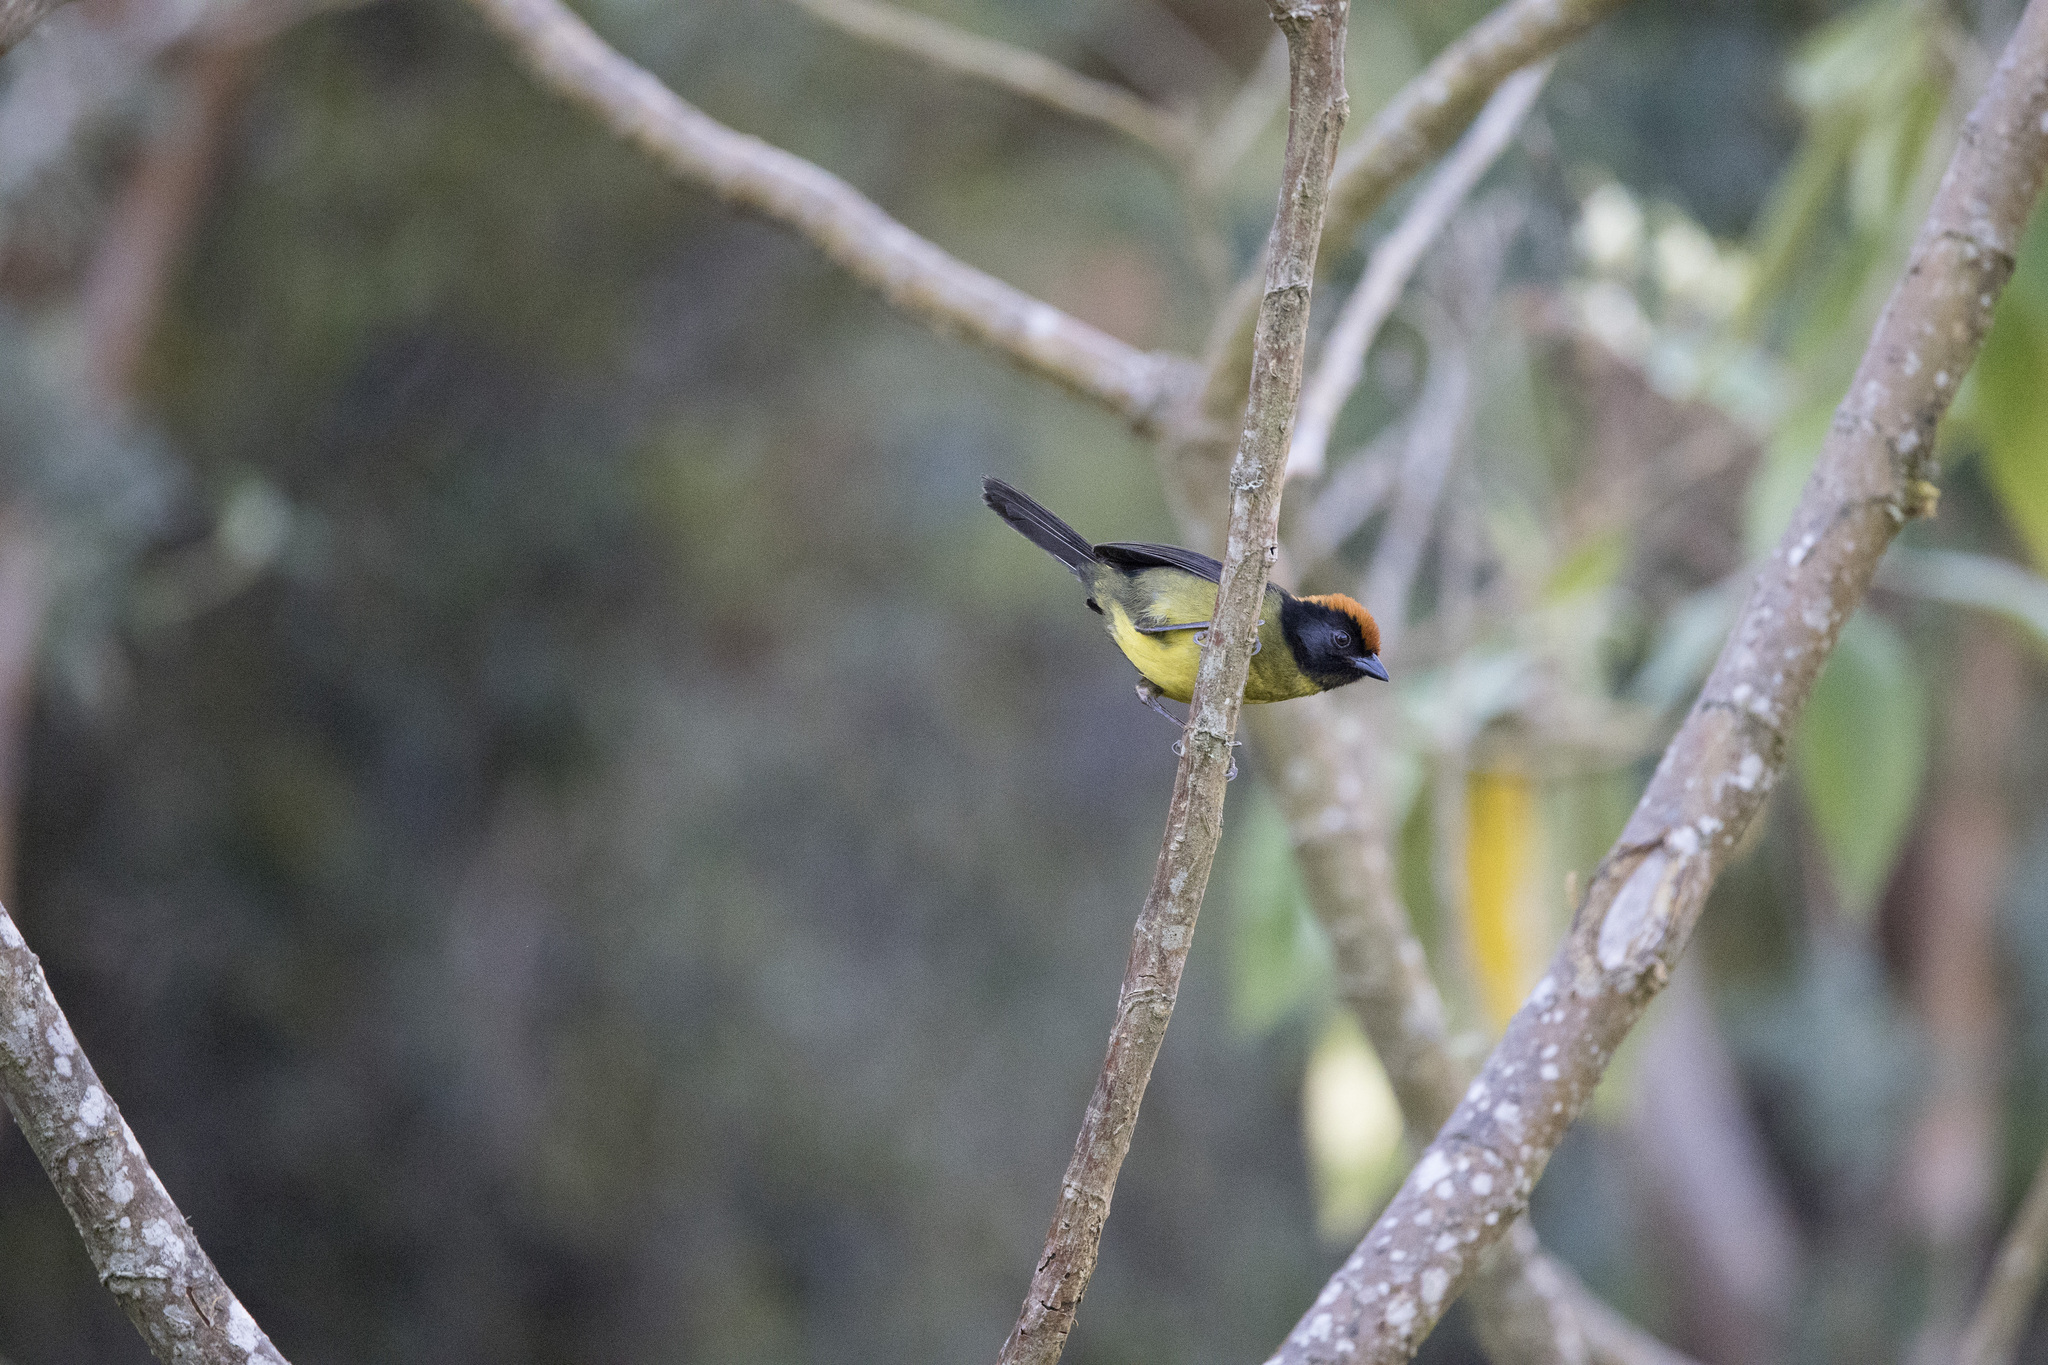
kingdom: Animalia
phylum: Chordata
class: Aves
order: Passeriformes
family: Passerellidae
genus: Atlapetes
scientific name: Atlapetes melanolaemus
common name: Grey-eared brush finch
